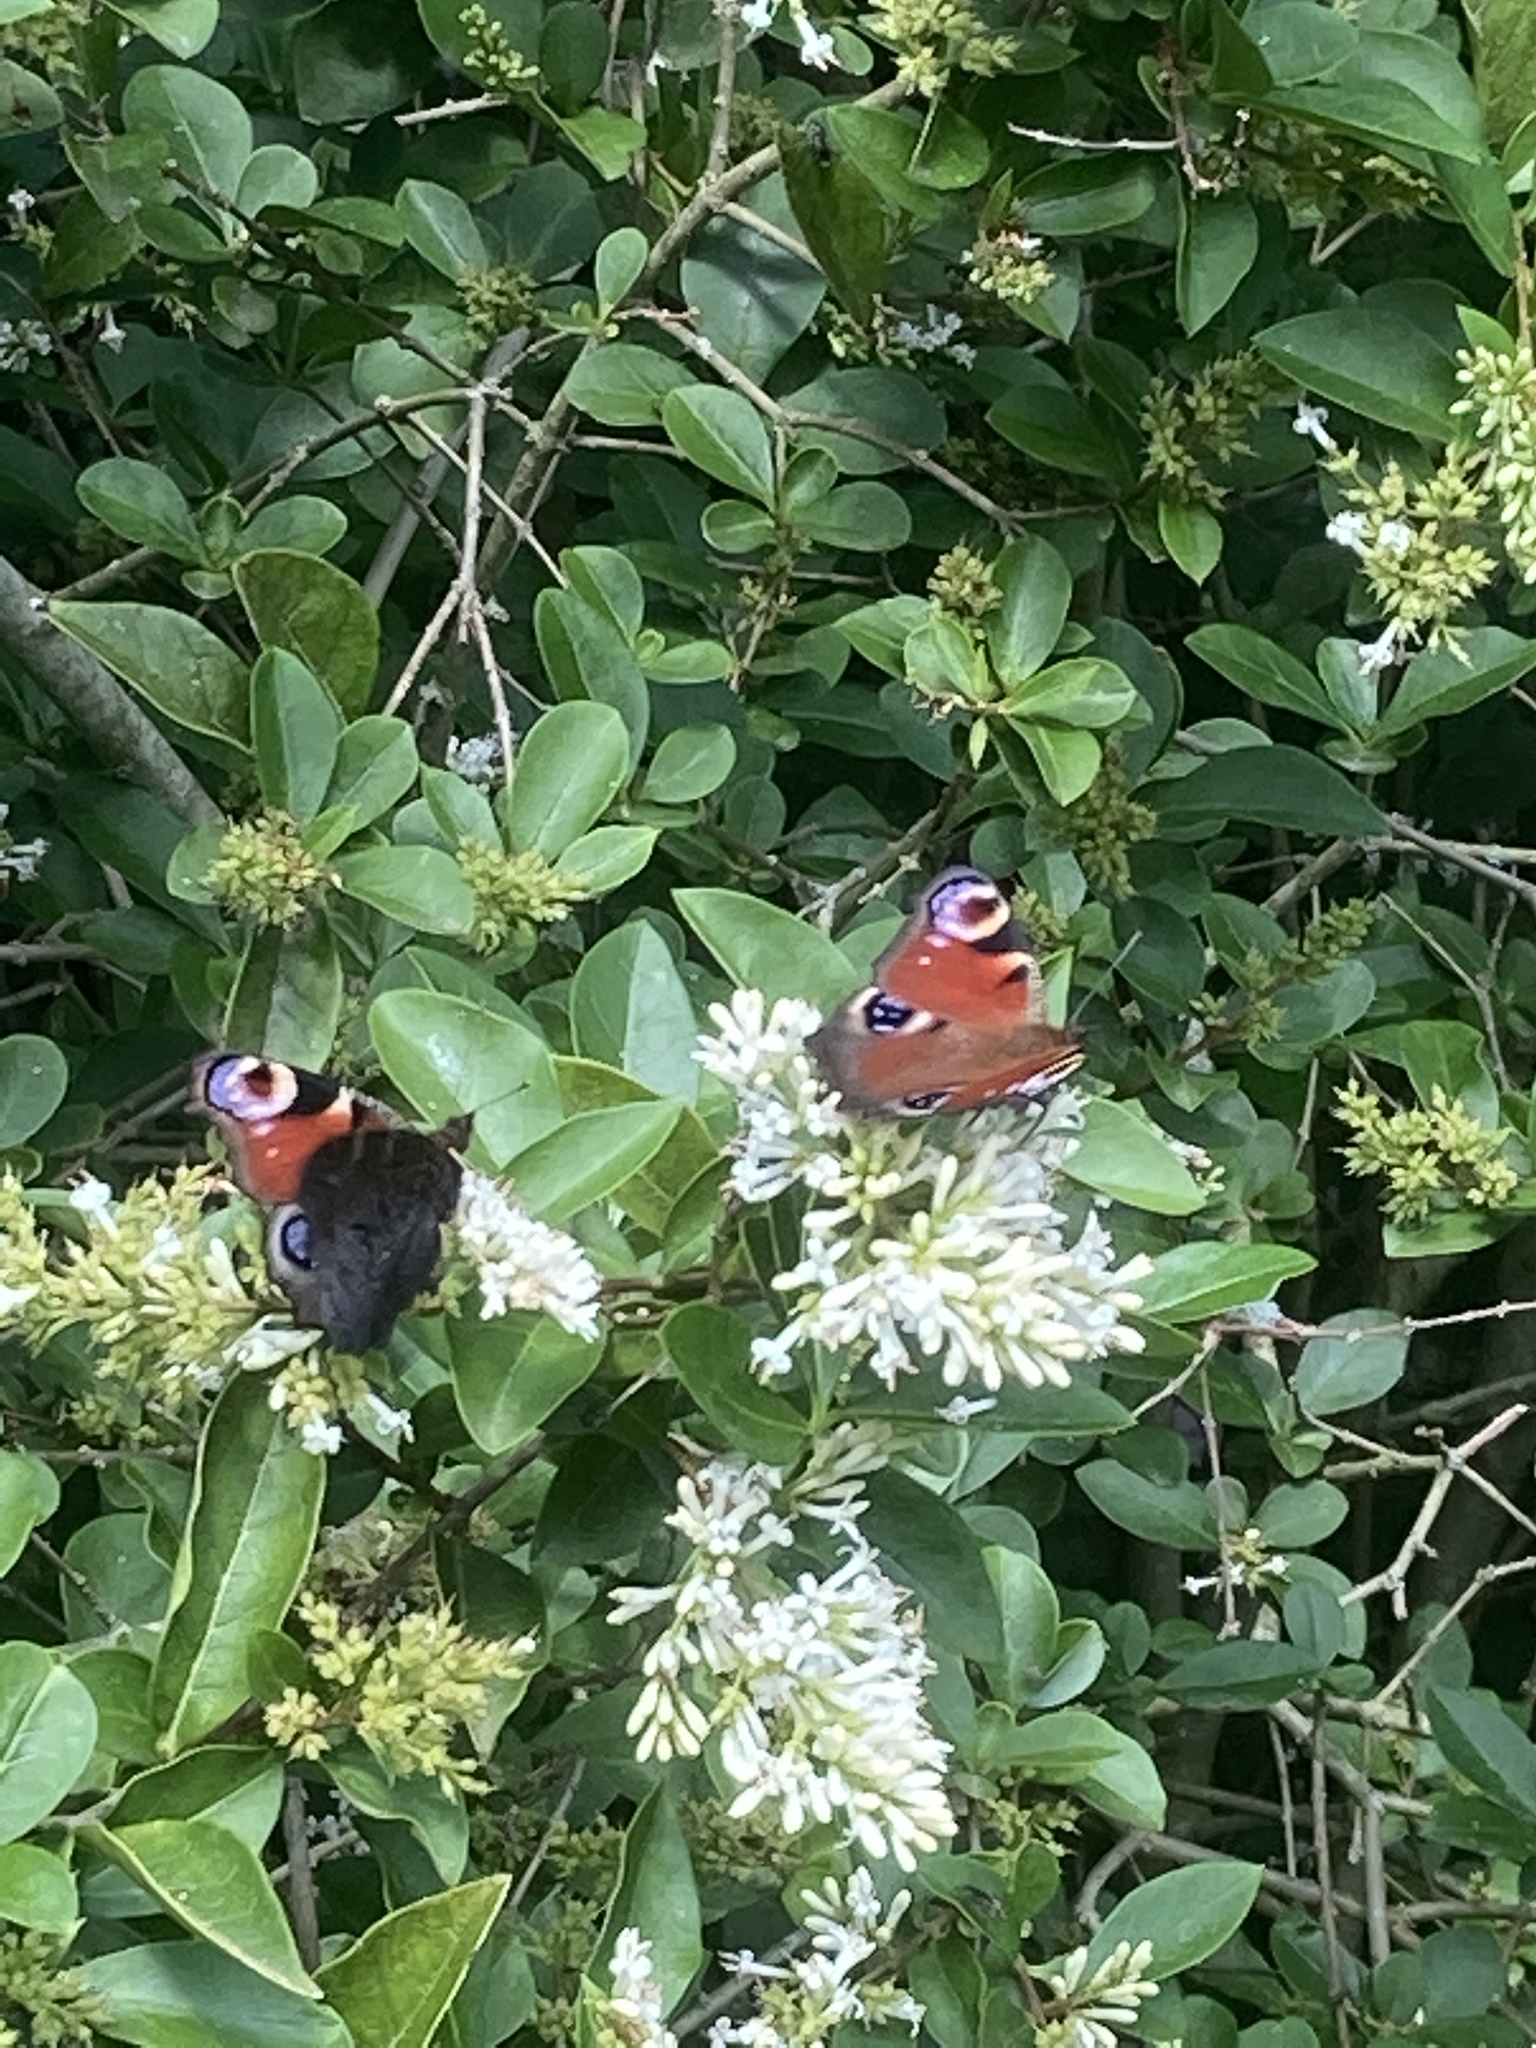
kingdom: Animalia
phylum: Arthropoda
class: Insecta
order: Lepidoptera
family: Nymphalidae
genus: Aglais
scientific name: Aglais io
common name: Peacock
